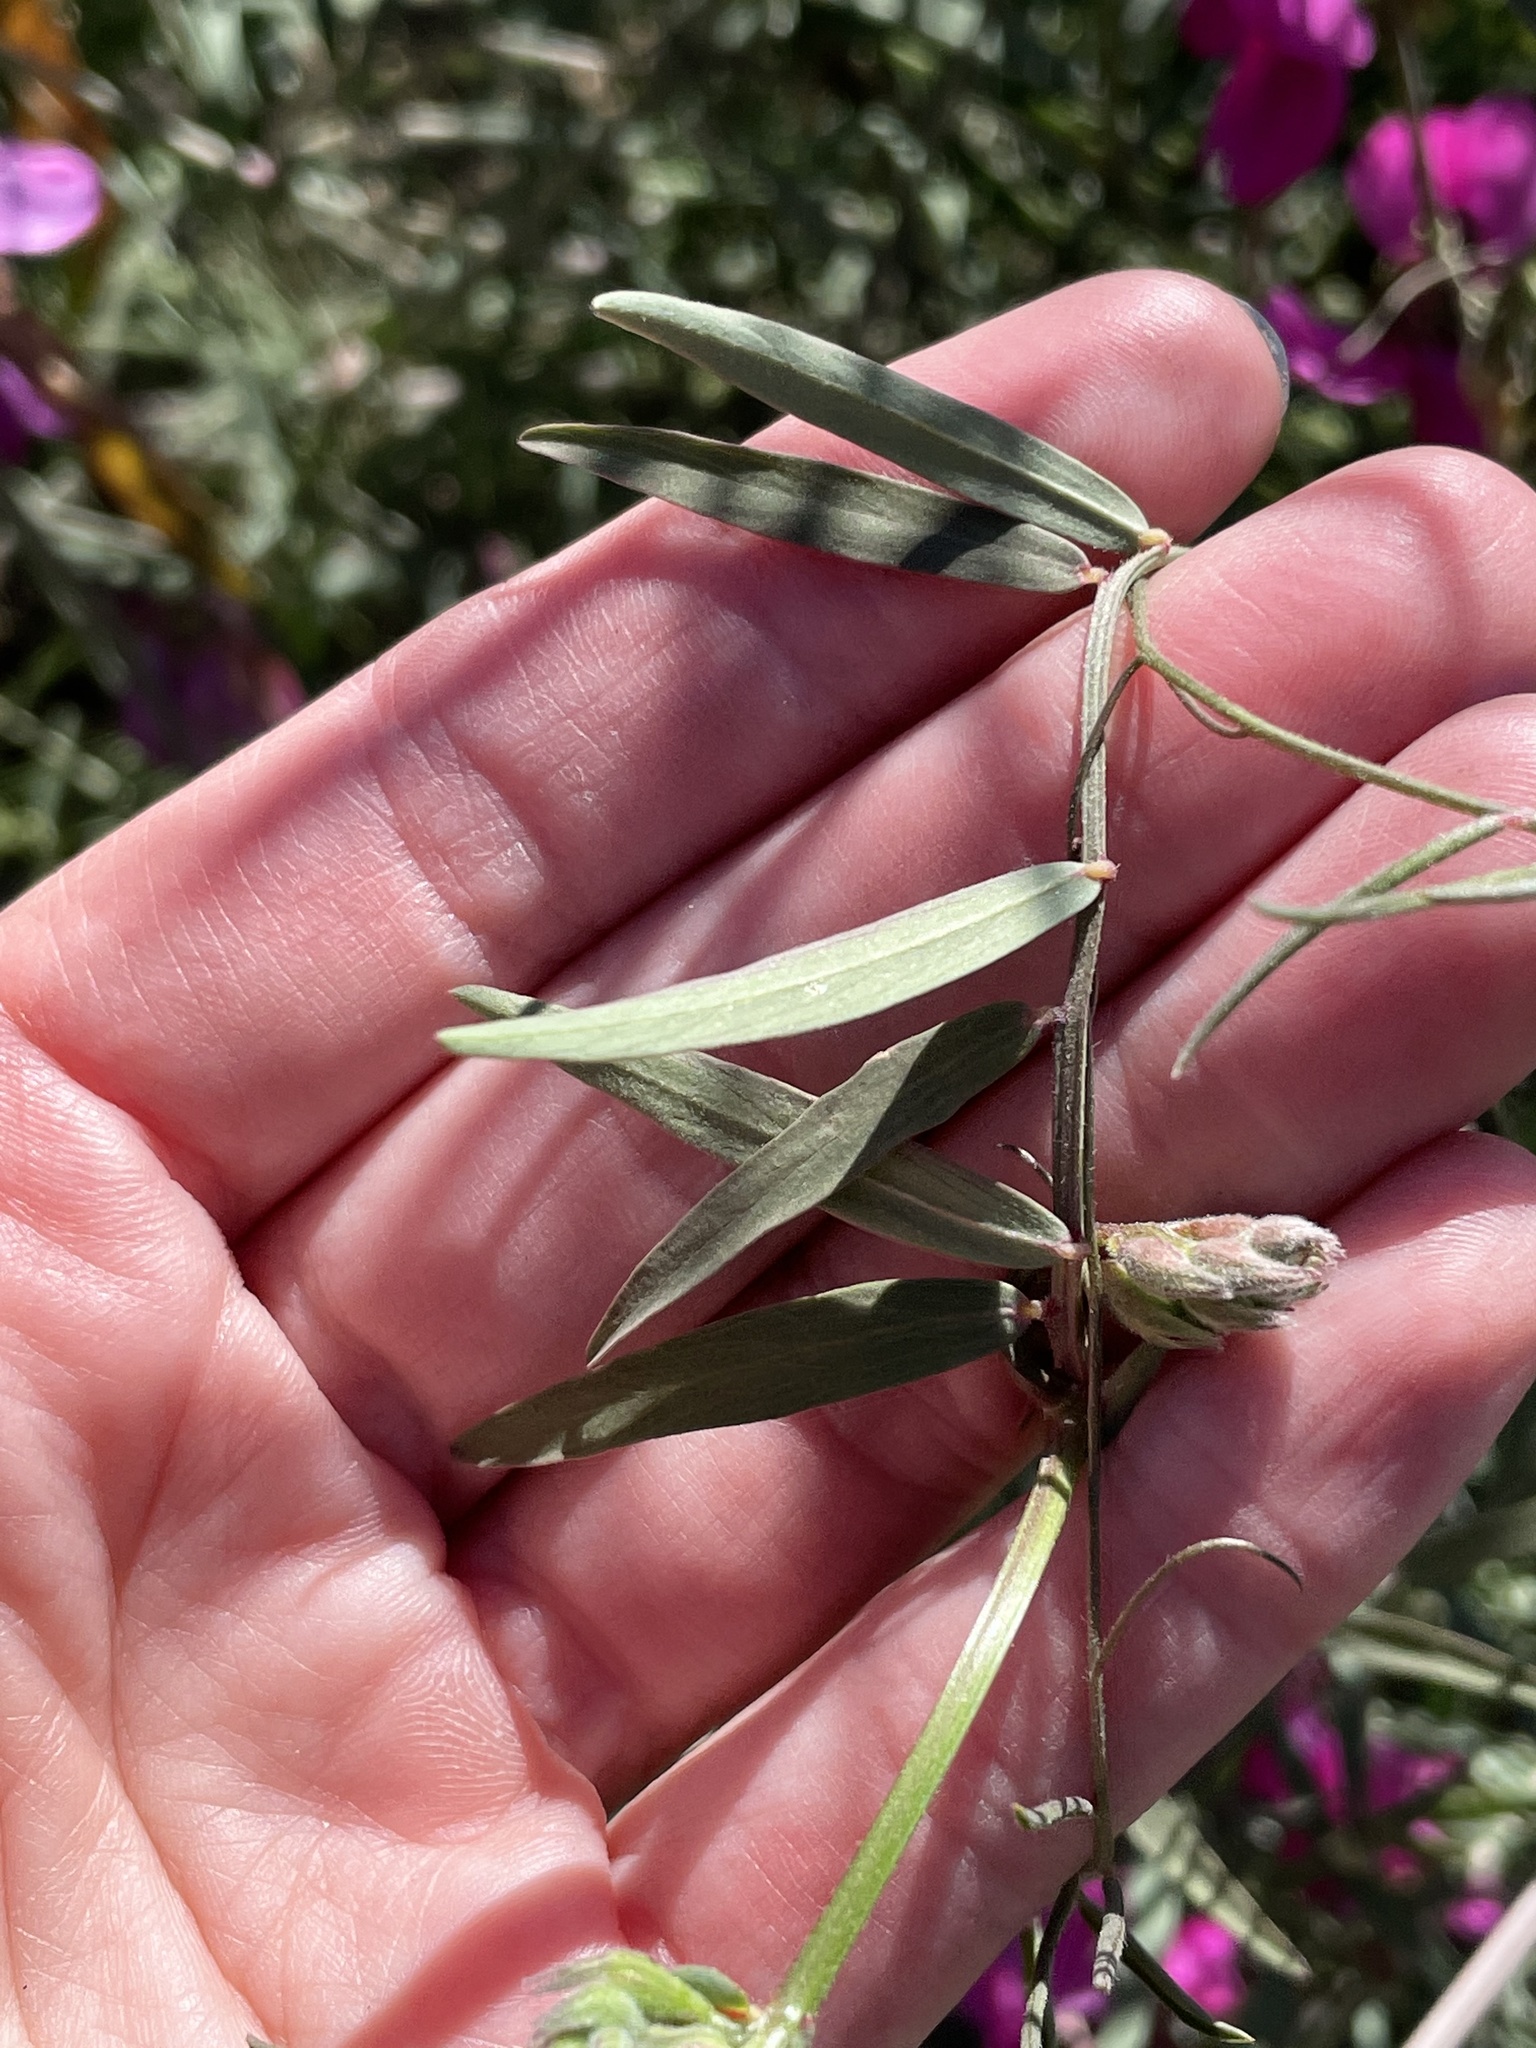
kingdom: Plantae
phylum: Tracheophyta
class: Magnoliopsida
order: Fabales
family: Fabaceae
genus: Lathyrus
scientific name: Lathyrus vestitus
